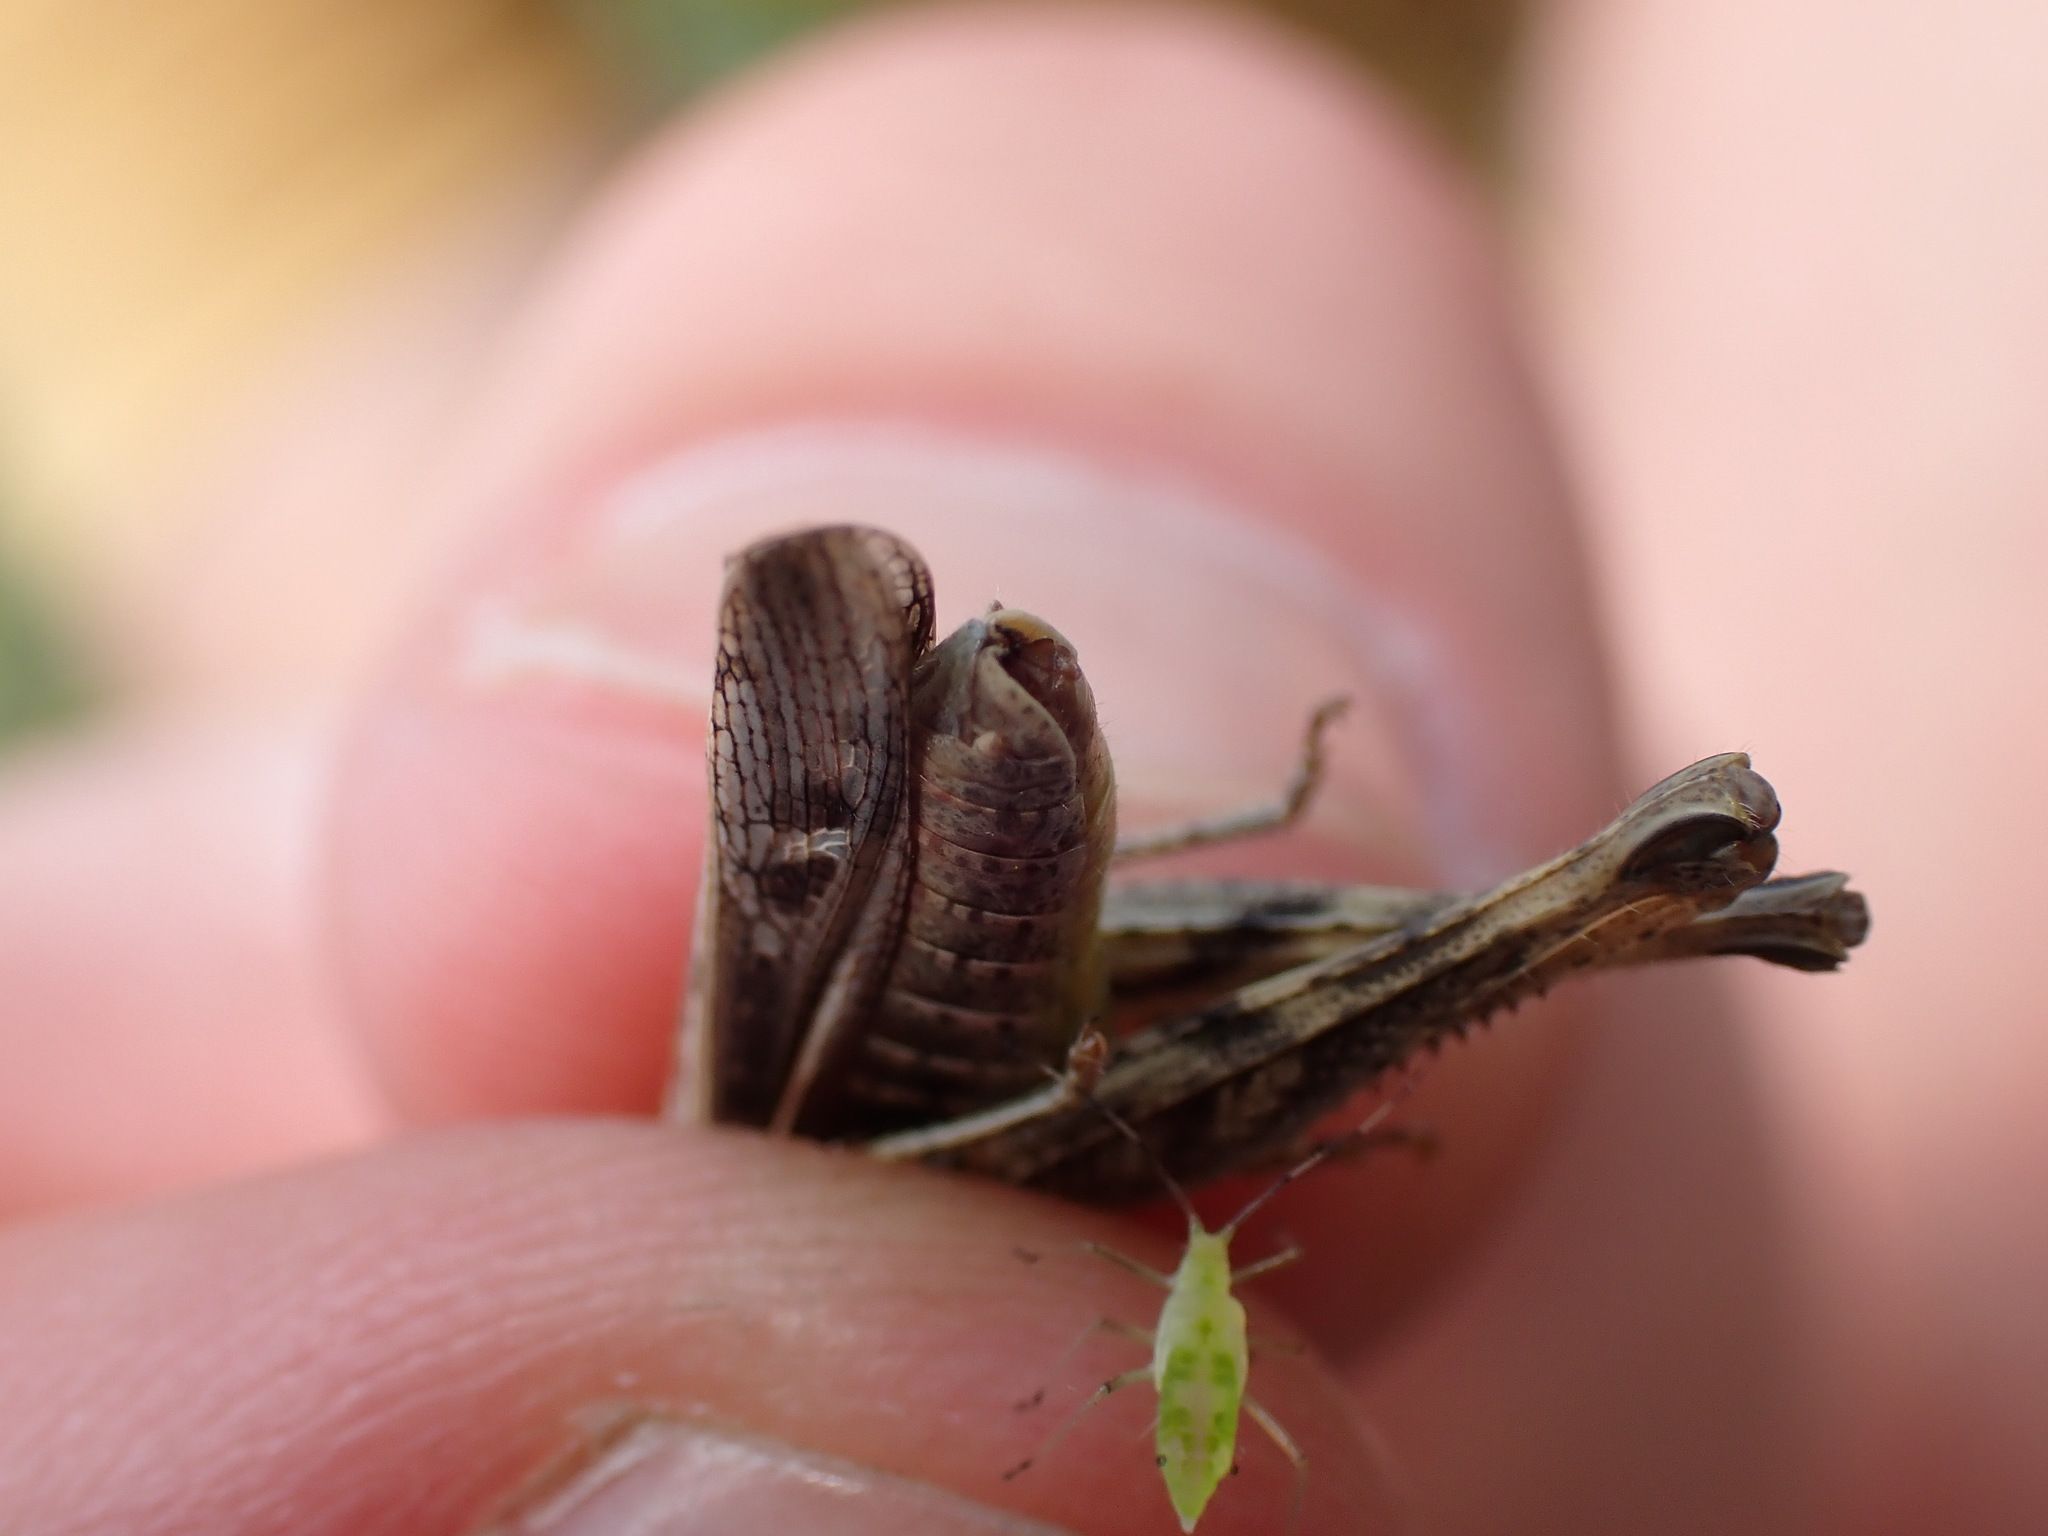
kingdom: Animalia
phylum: Arthropoda
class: Insecta
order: Orthoptera
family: Acrididae
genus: Glyptobothrus
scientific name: Glyptobothrus
